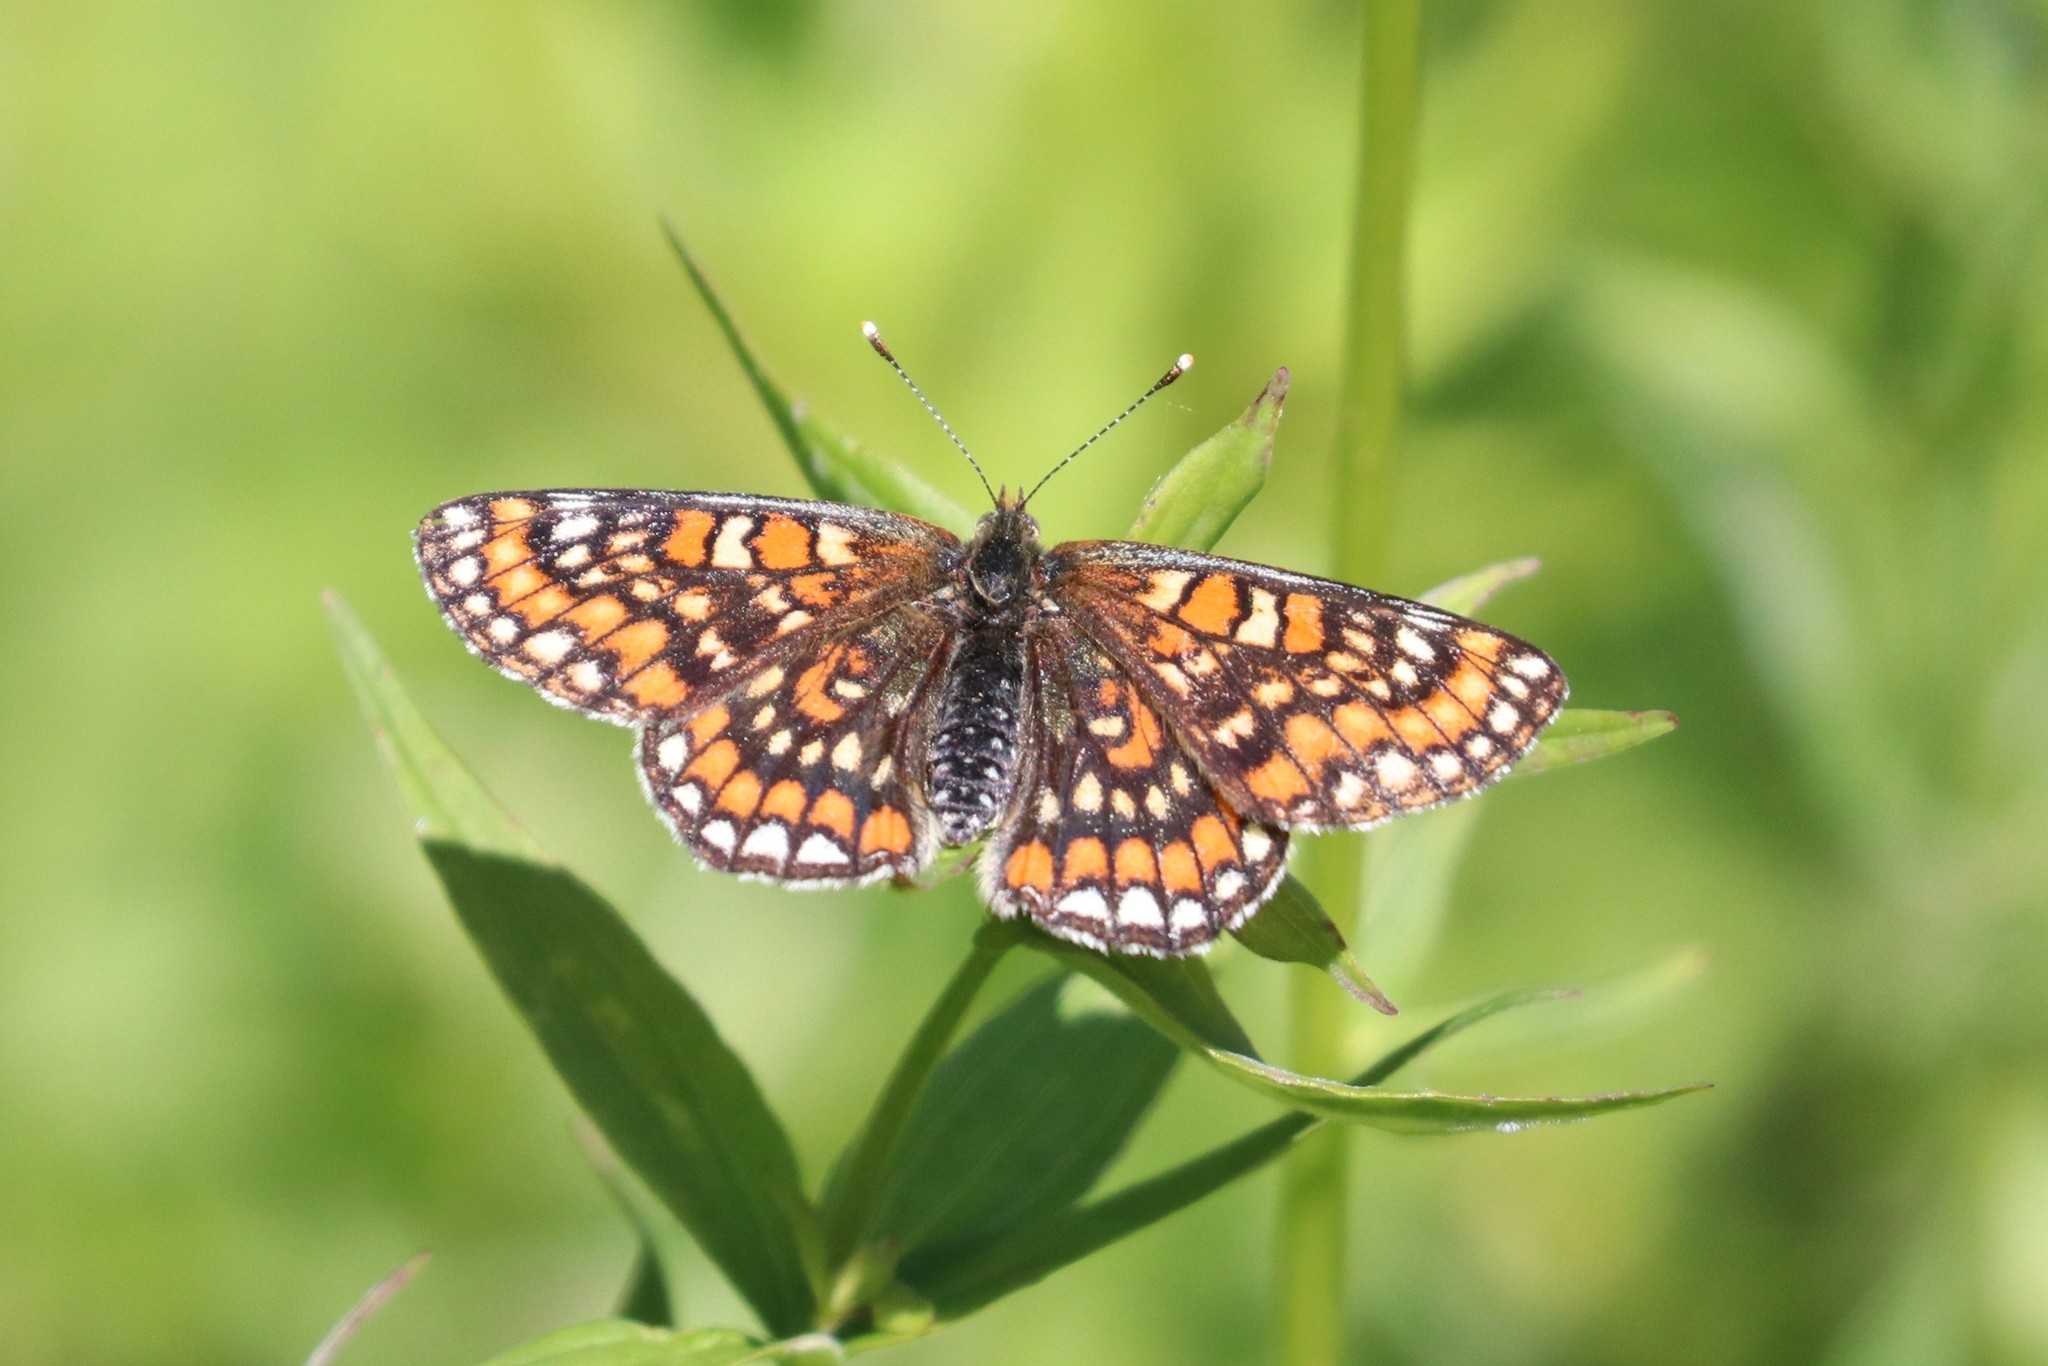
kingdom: Animalia
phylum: Arthropoda
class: Insecta
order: Lepidoptera
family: Nymphalidae
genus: Euphydryas
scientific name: Euphydryas maturna
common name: Scarce fritillary
